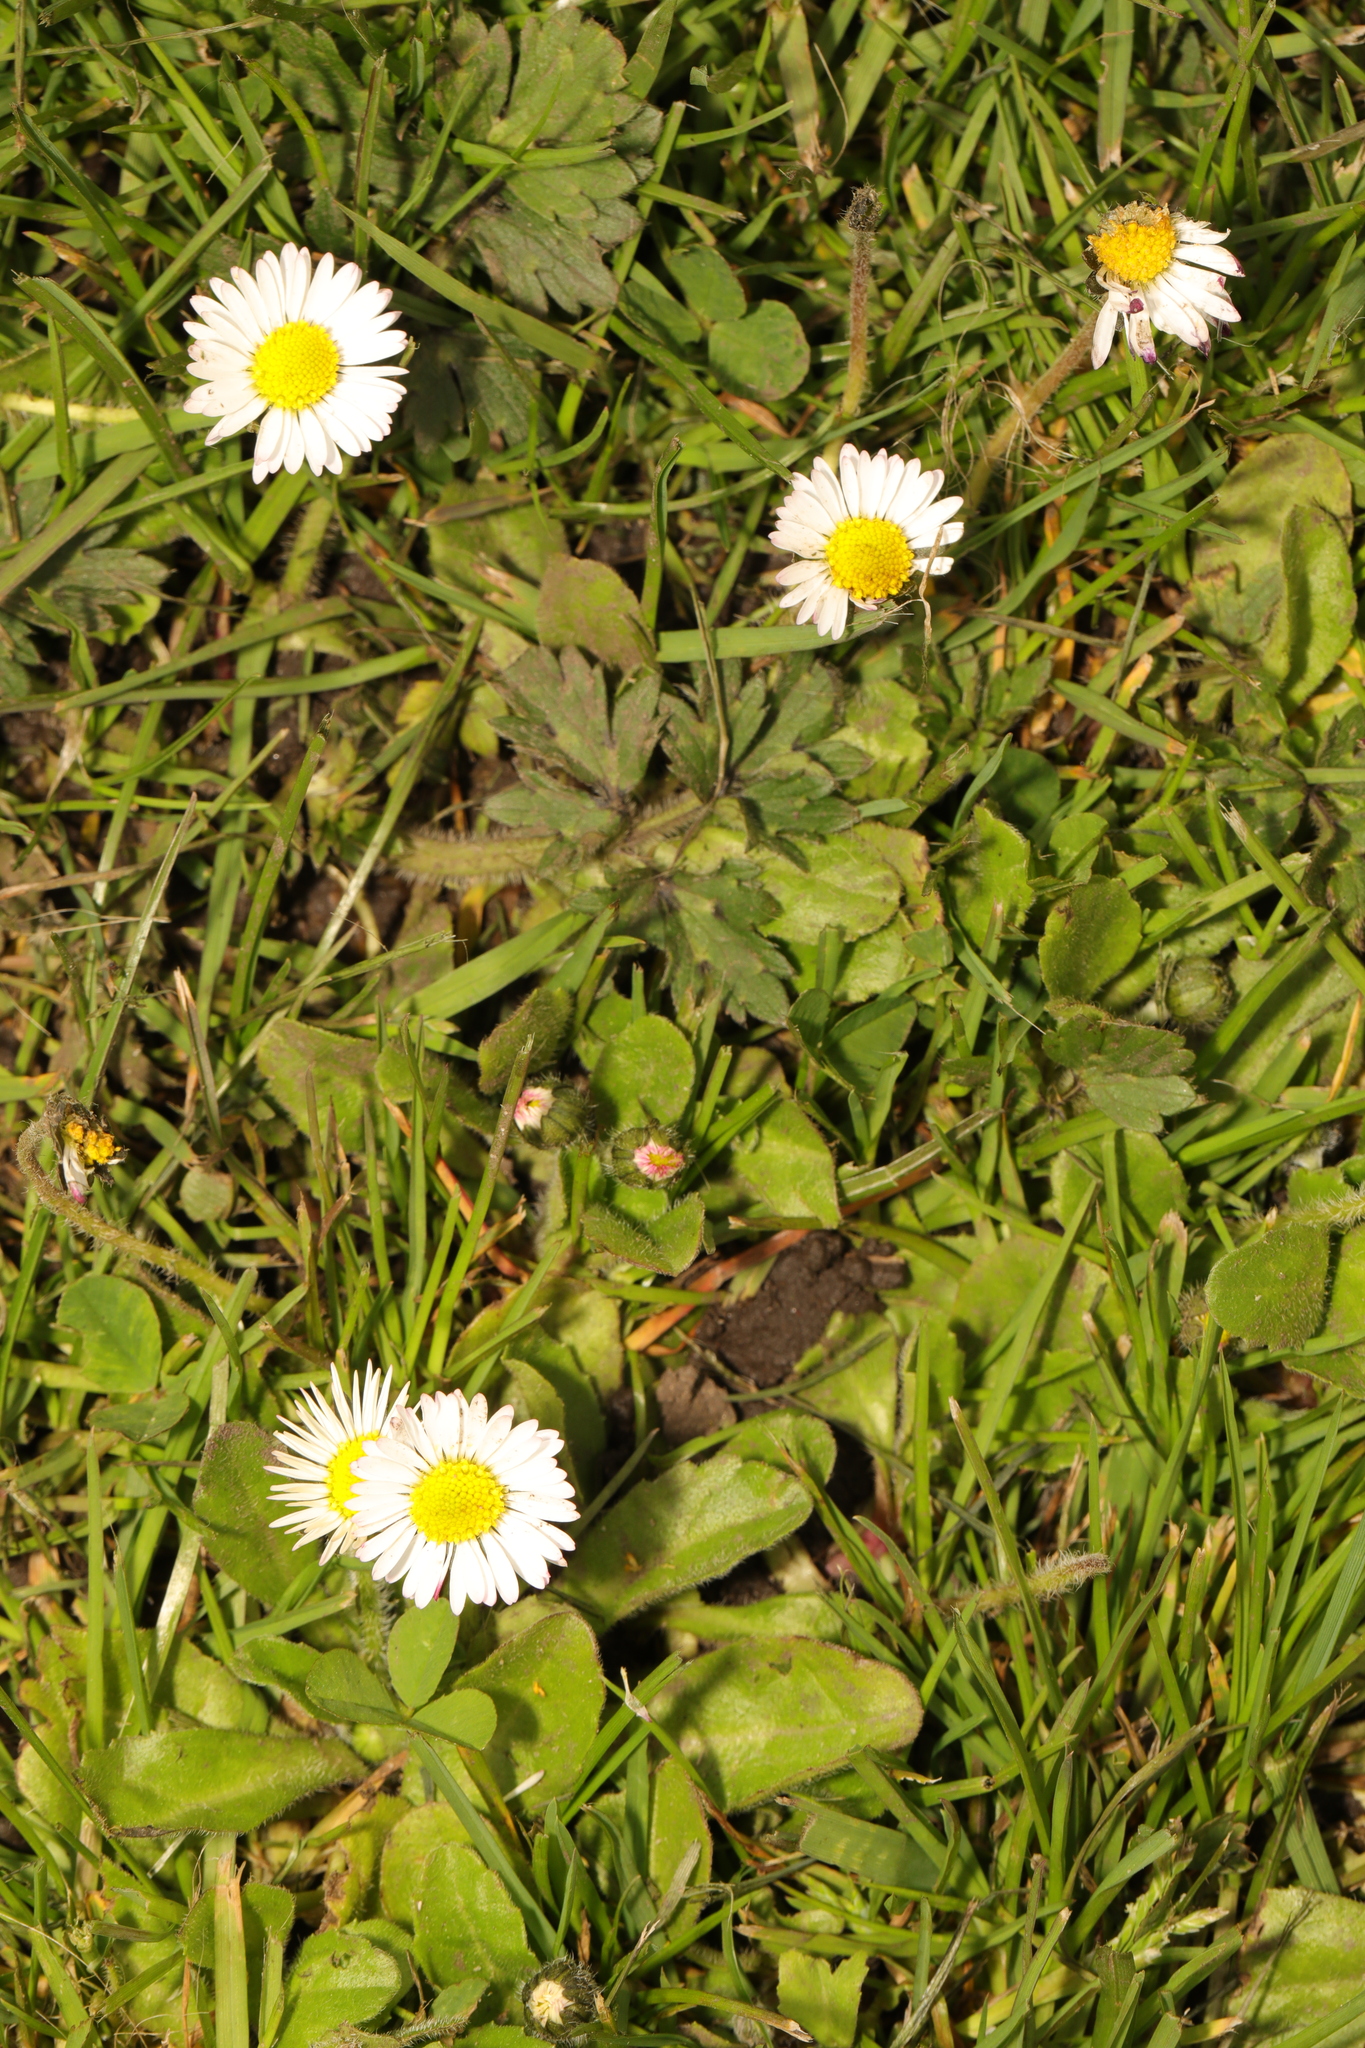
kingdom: Plantae
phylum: Tracheophyta
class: Magnoliopsida
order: Asterales
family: Asteraceae
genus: Bellis
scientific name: Bellis perennis
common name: Lawndaisy
